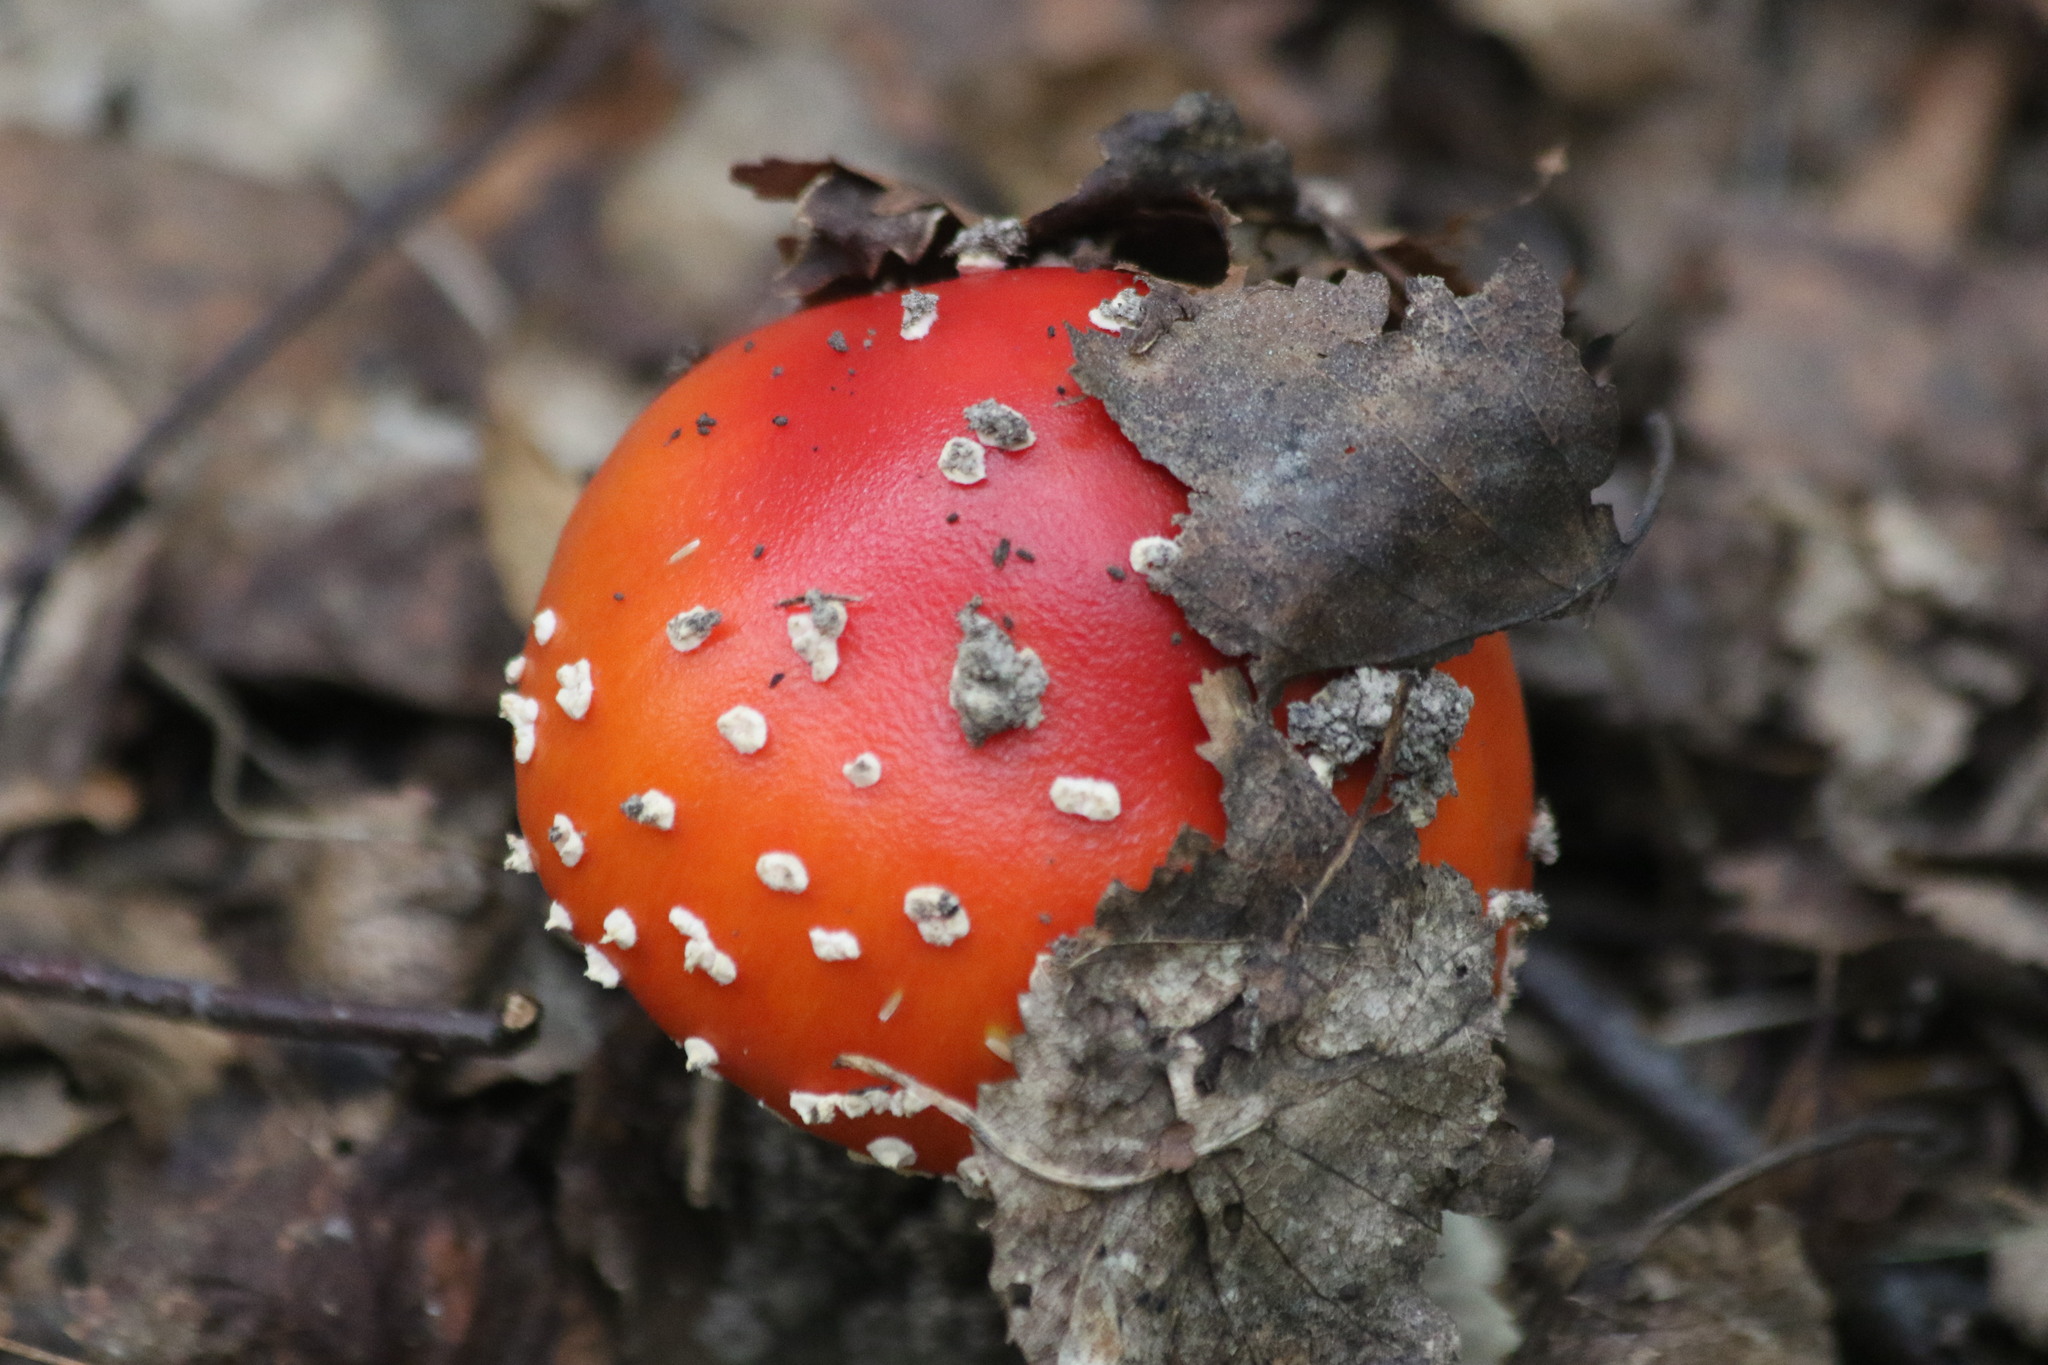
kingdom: Fungi
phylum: Basidiomycota
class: Agaricomycetes
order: Agaricales
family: Amanitaceae
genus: Amanita
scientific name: Amanita muscaria
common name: Fly agaric
